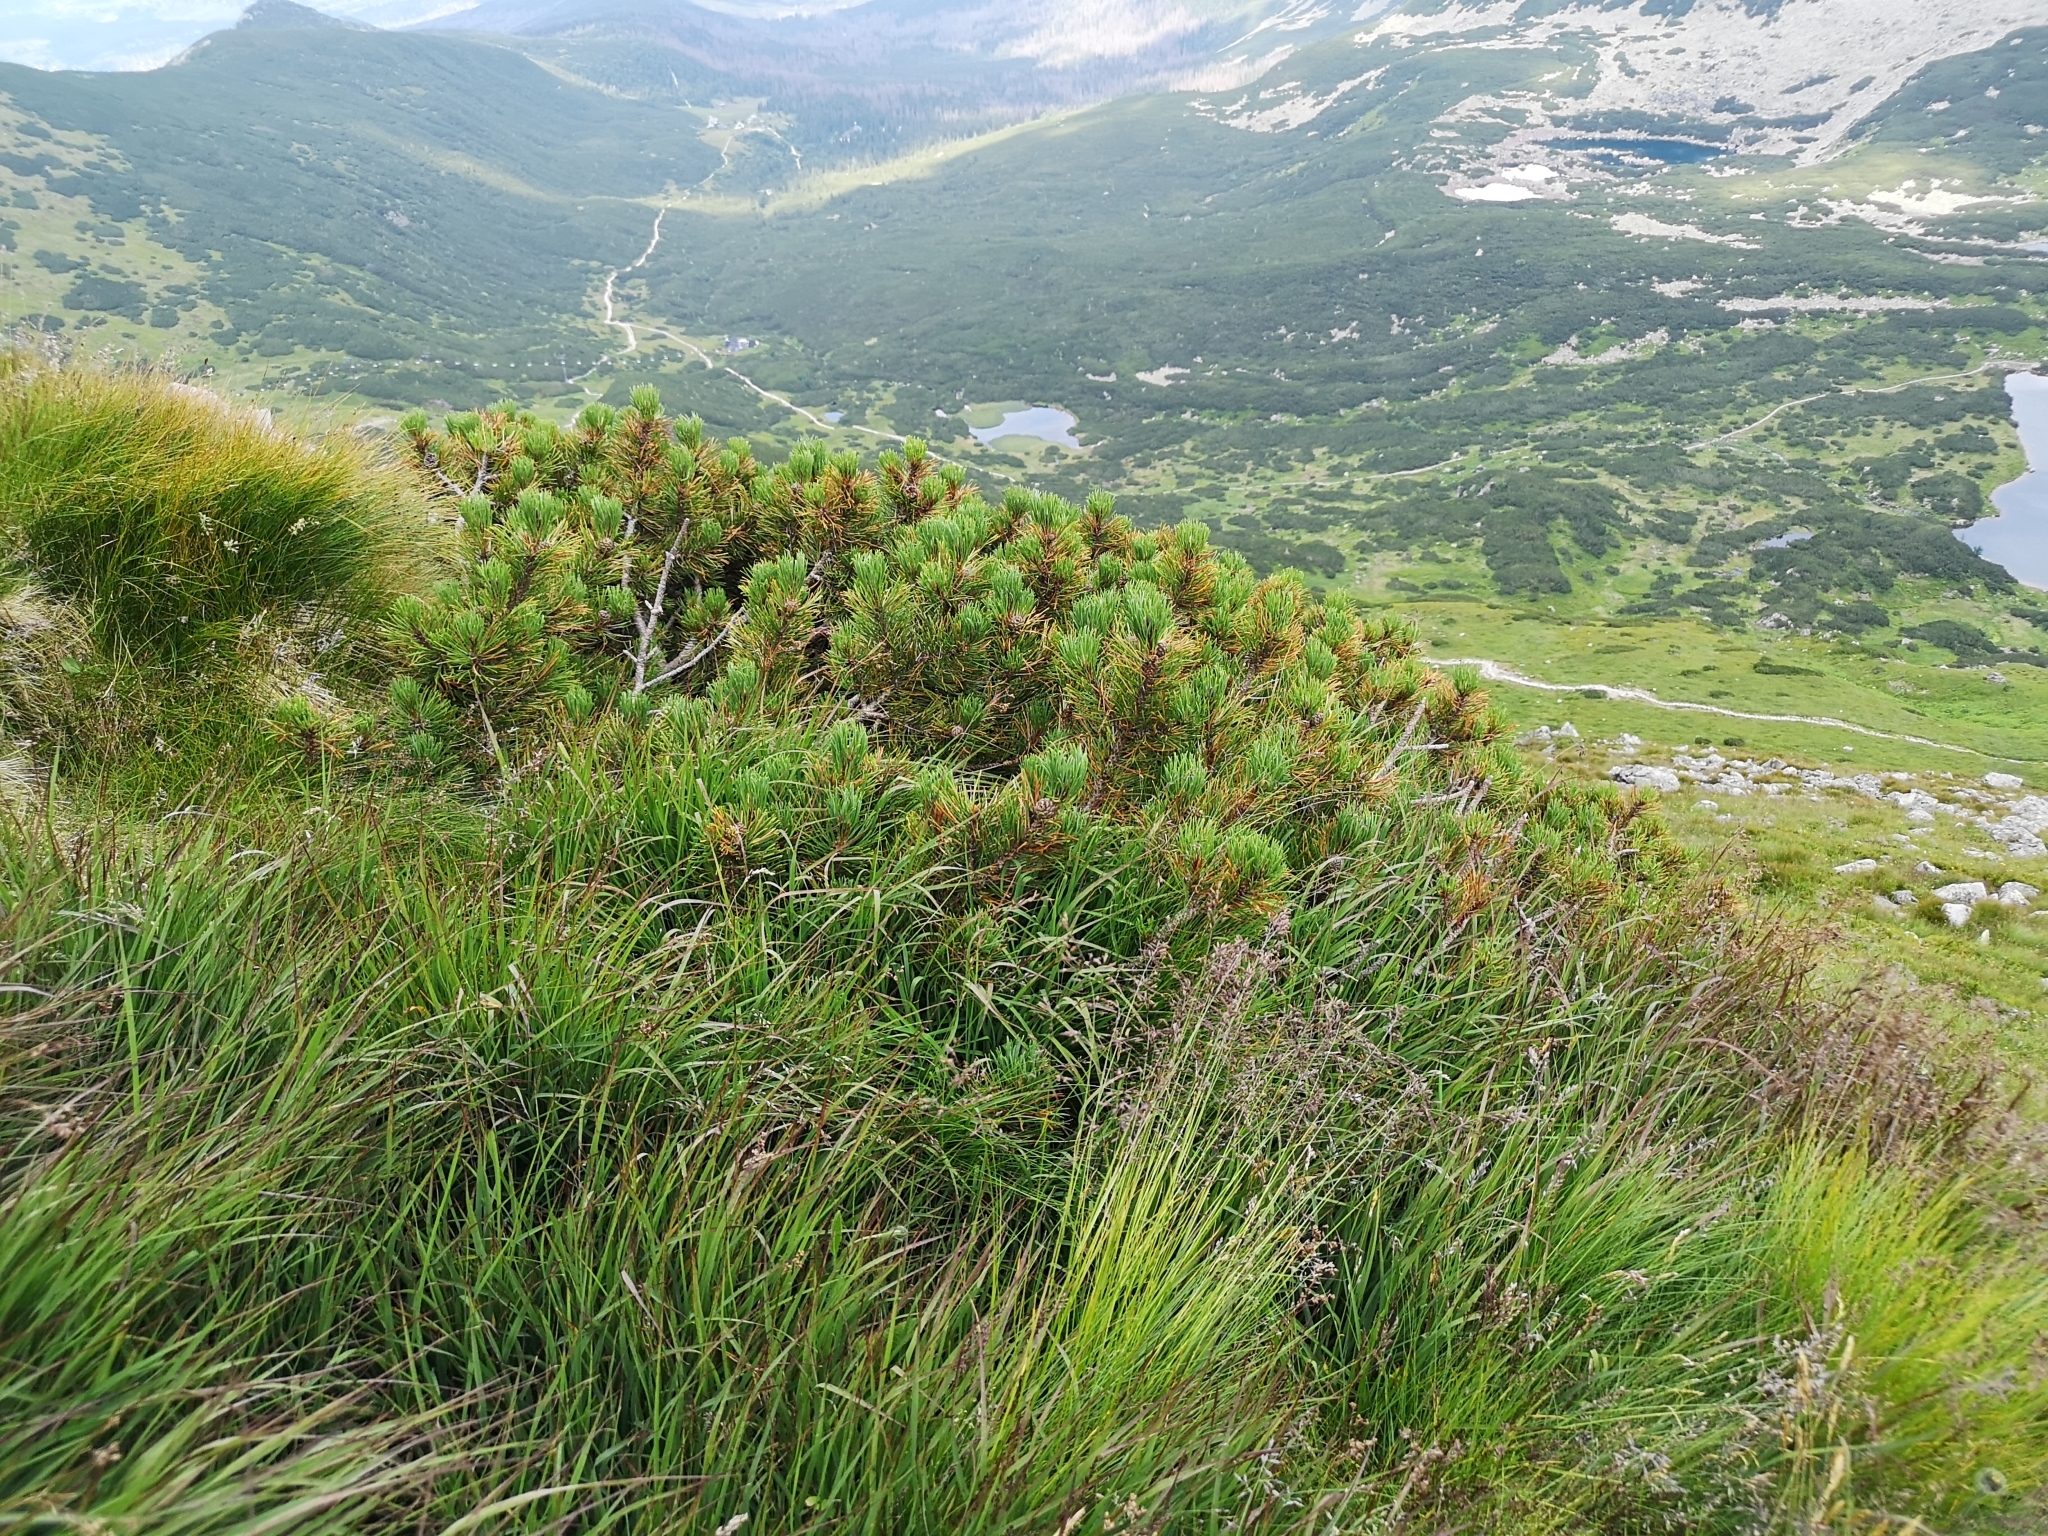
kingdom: Plantae
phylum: Tracheophyta
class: Pinopsida
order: Pinales
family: Pinaceae
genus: Pinus
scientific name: Pinus mugo
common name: Mugo pine
